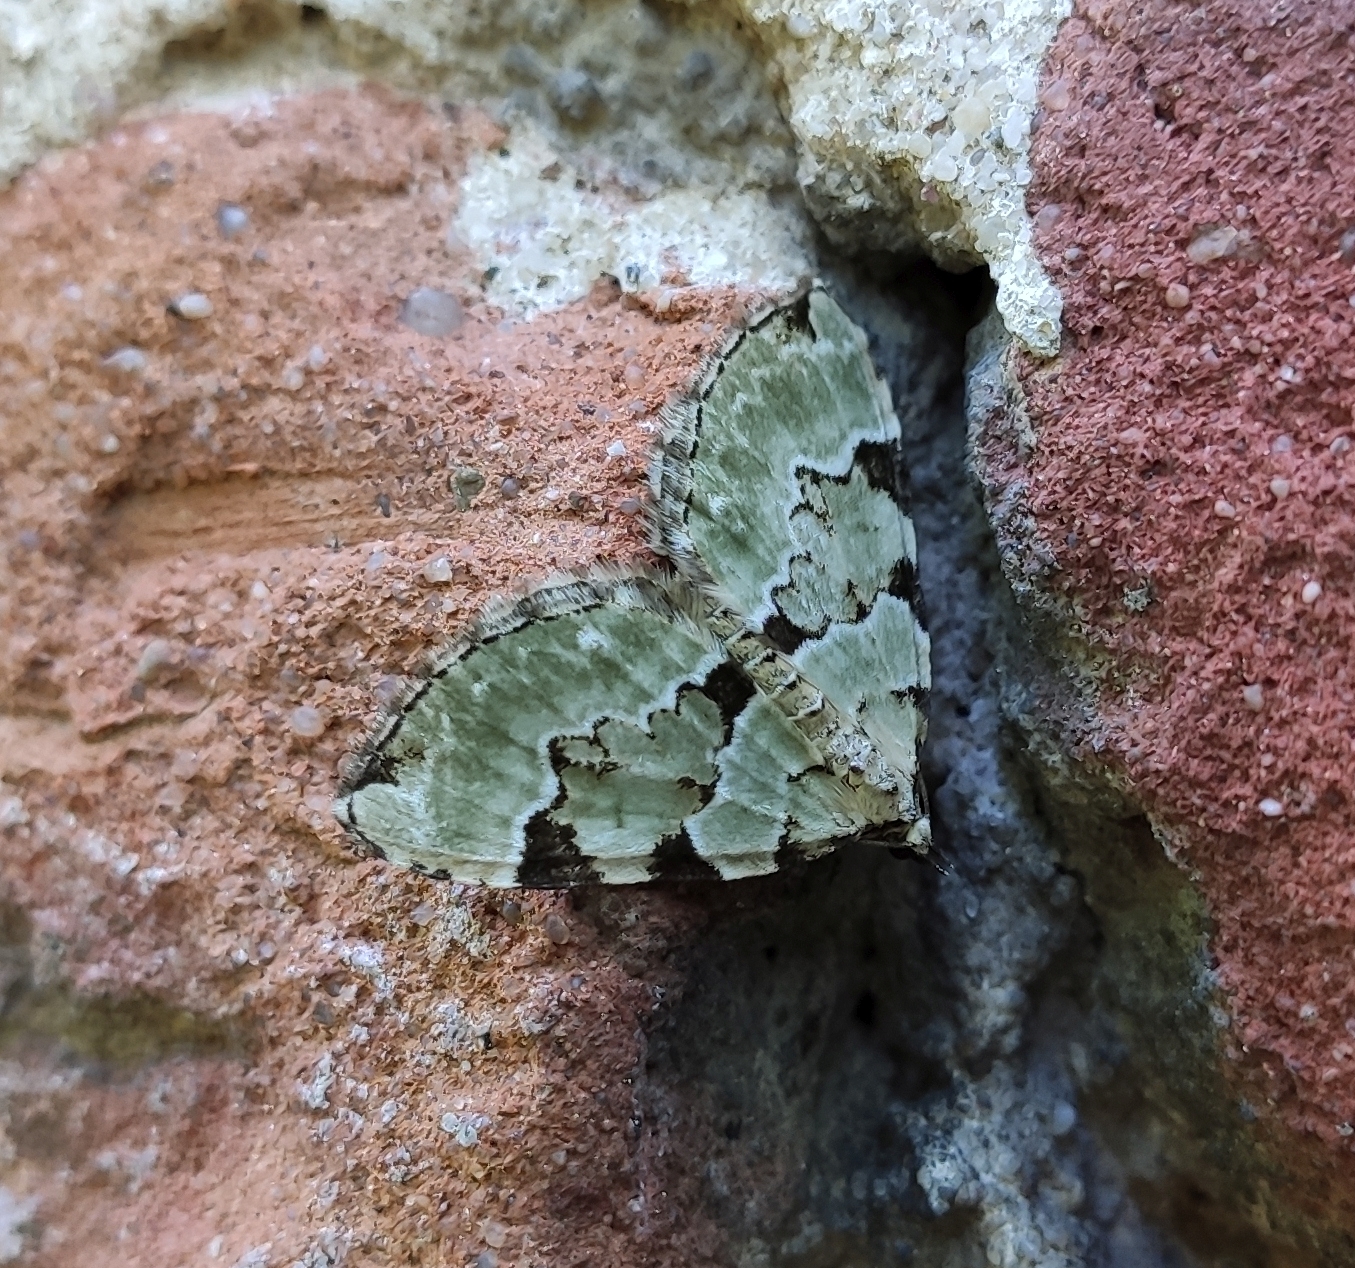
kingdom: Animalia
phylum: Arthropoda
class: Insecta
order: Lepidoptera
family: Geometridae
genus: Colostygia
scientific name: Colostygia pectinataria
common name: Green carpet
